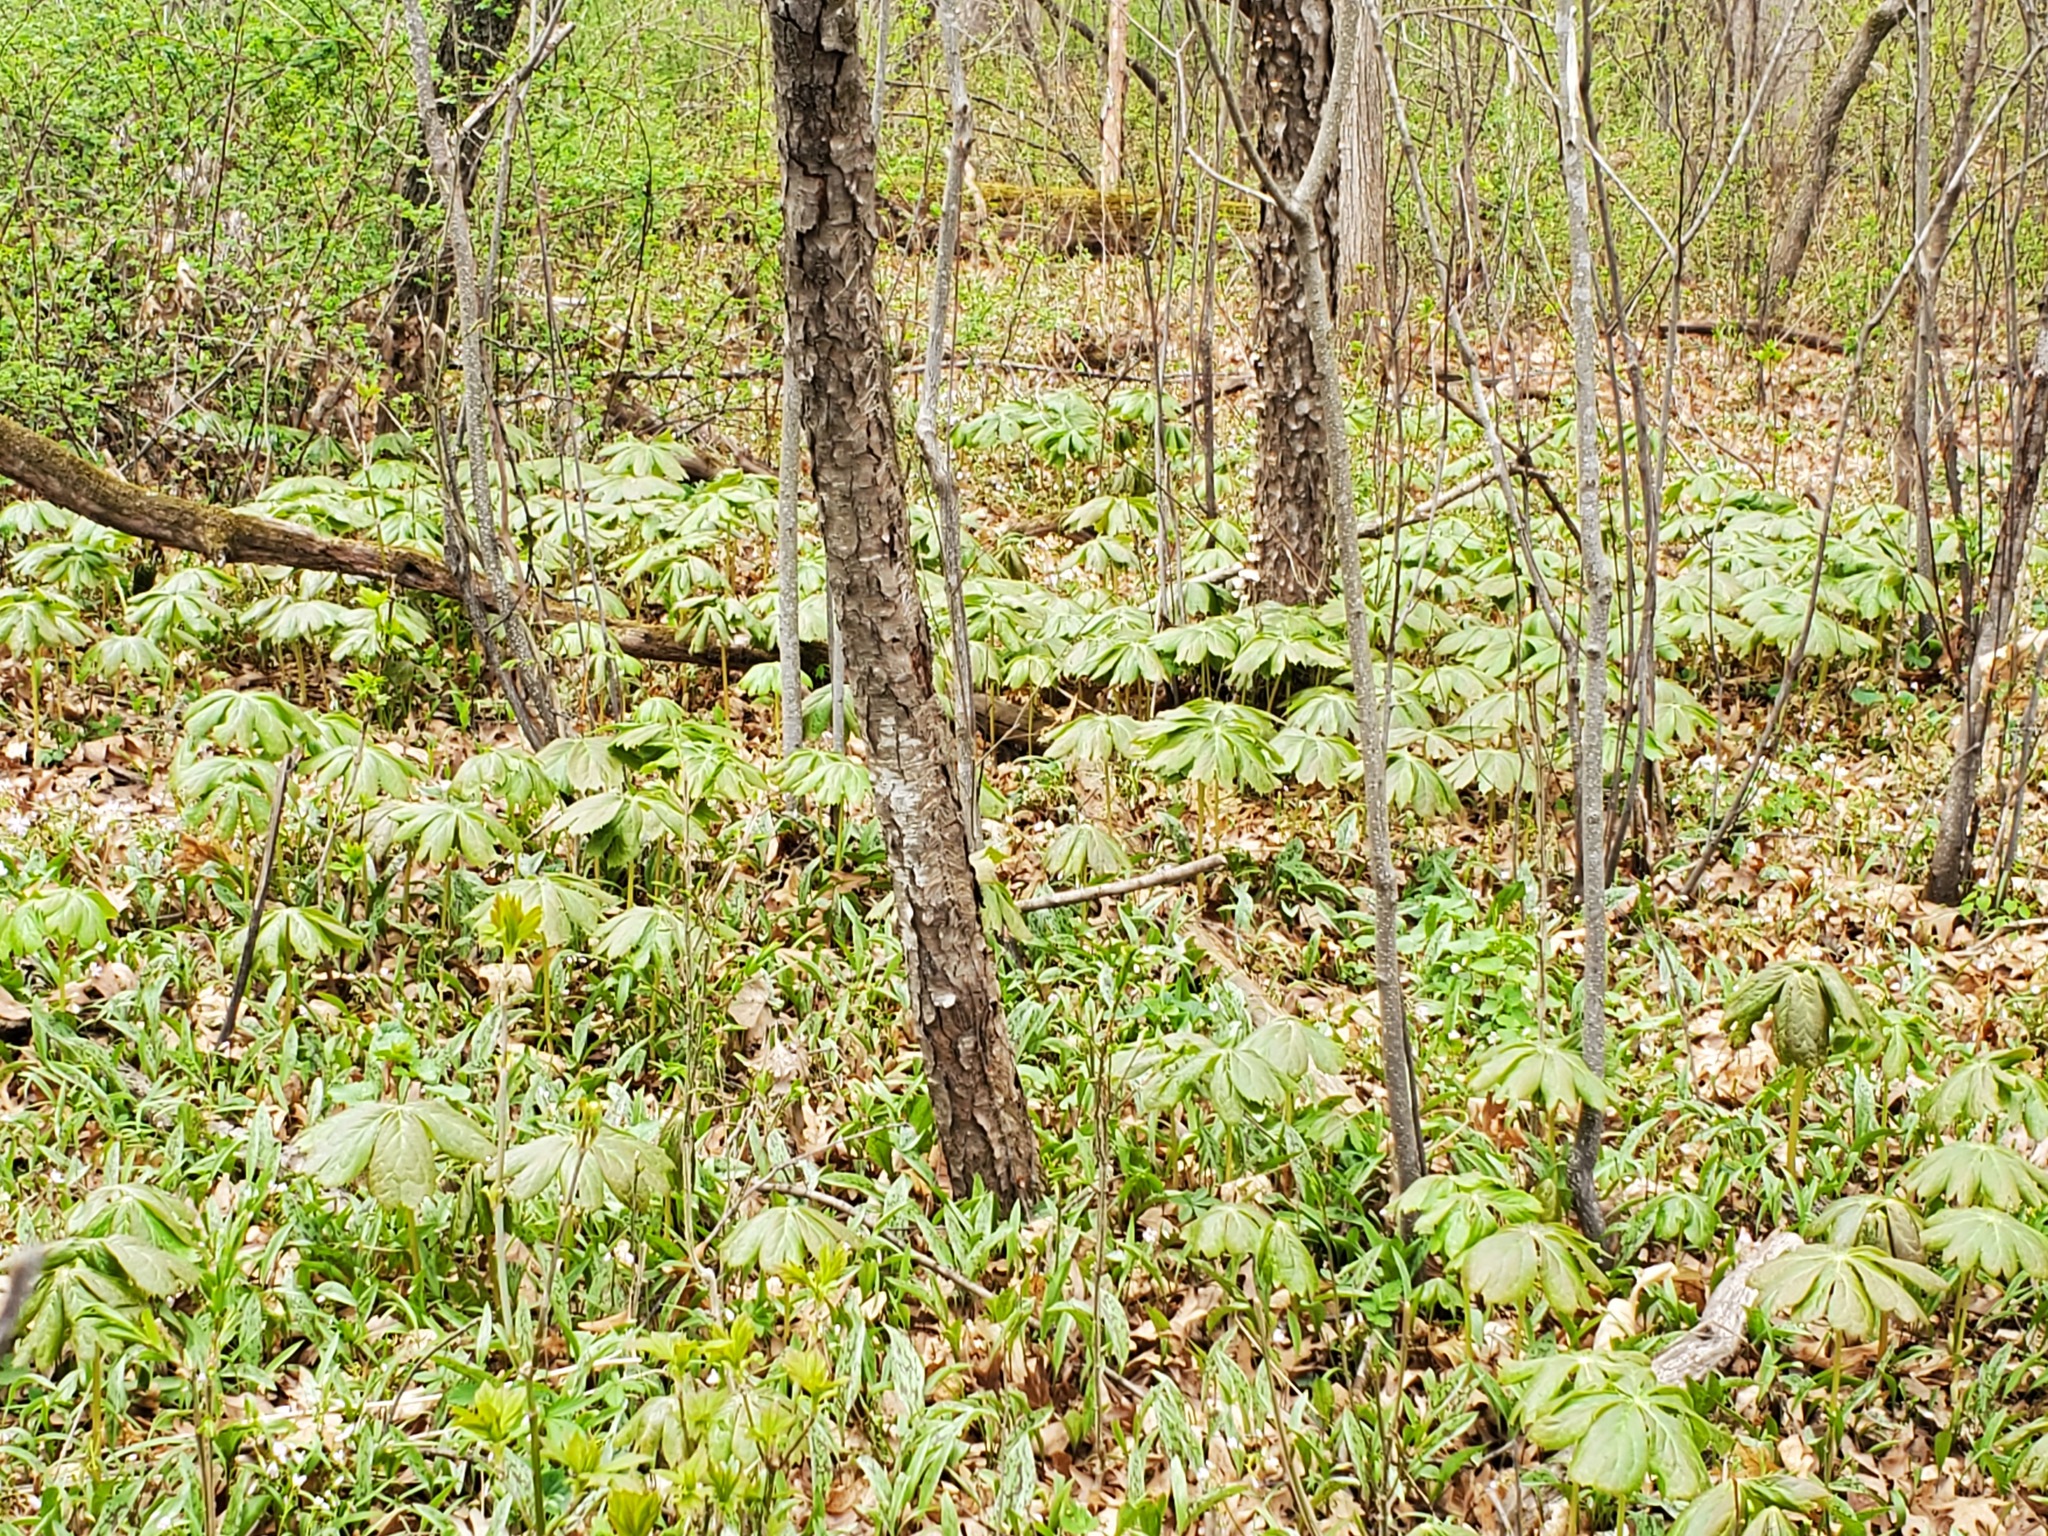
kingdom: Plantae
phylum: Tracheophyta
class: Magnoliopsida
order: Ranunculales
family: Berberidaceae
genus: Podophyllum
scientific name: Podophyllum peltatum
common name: Wild mandrake
